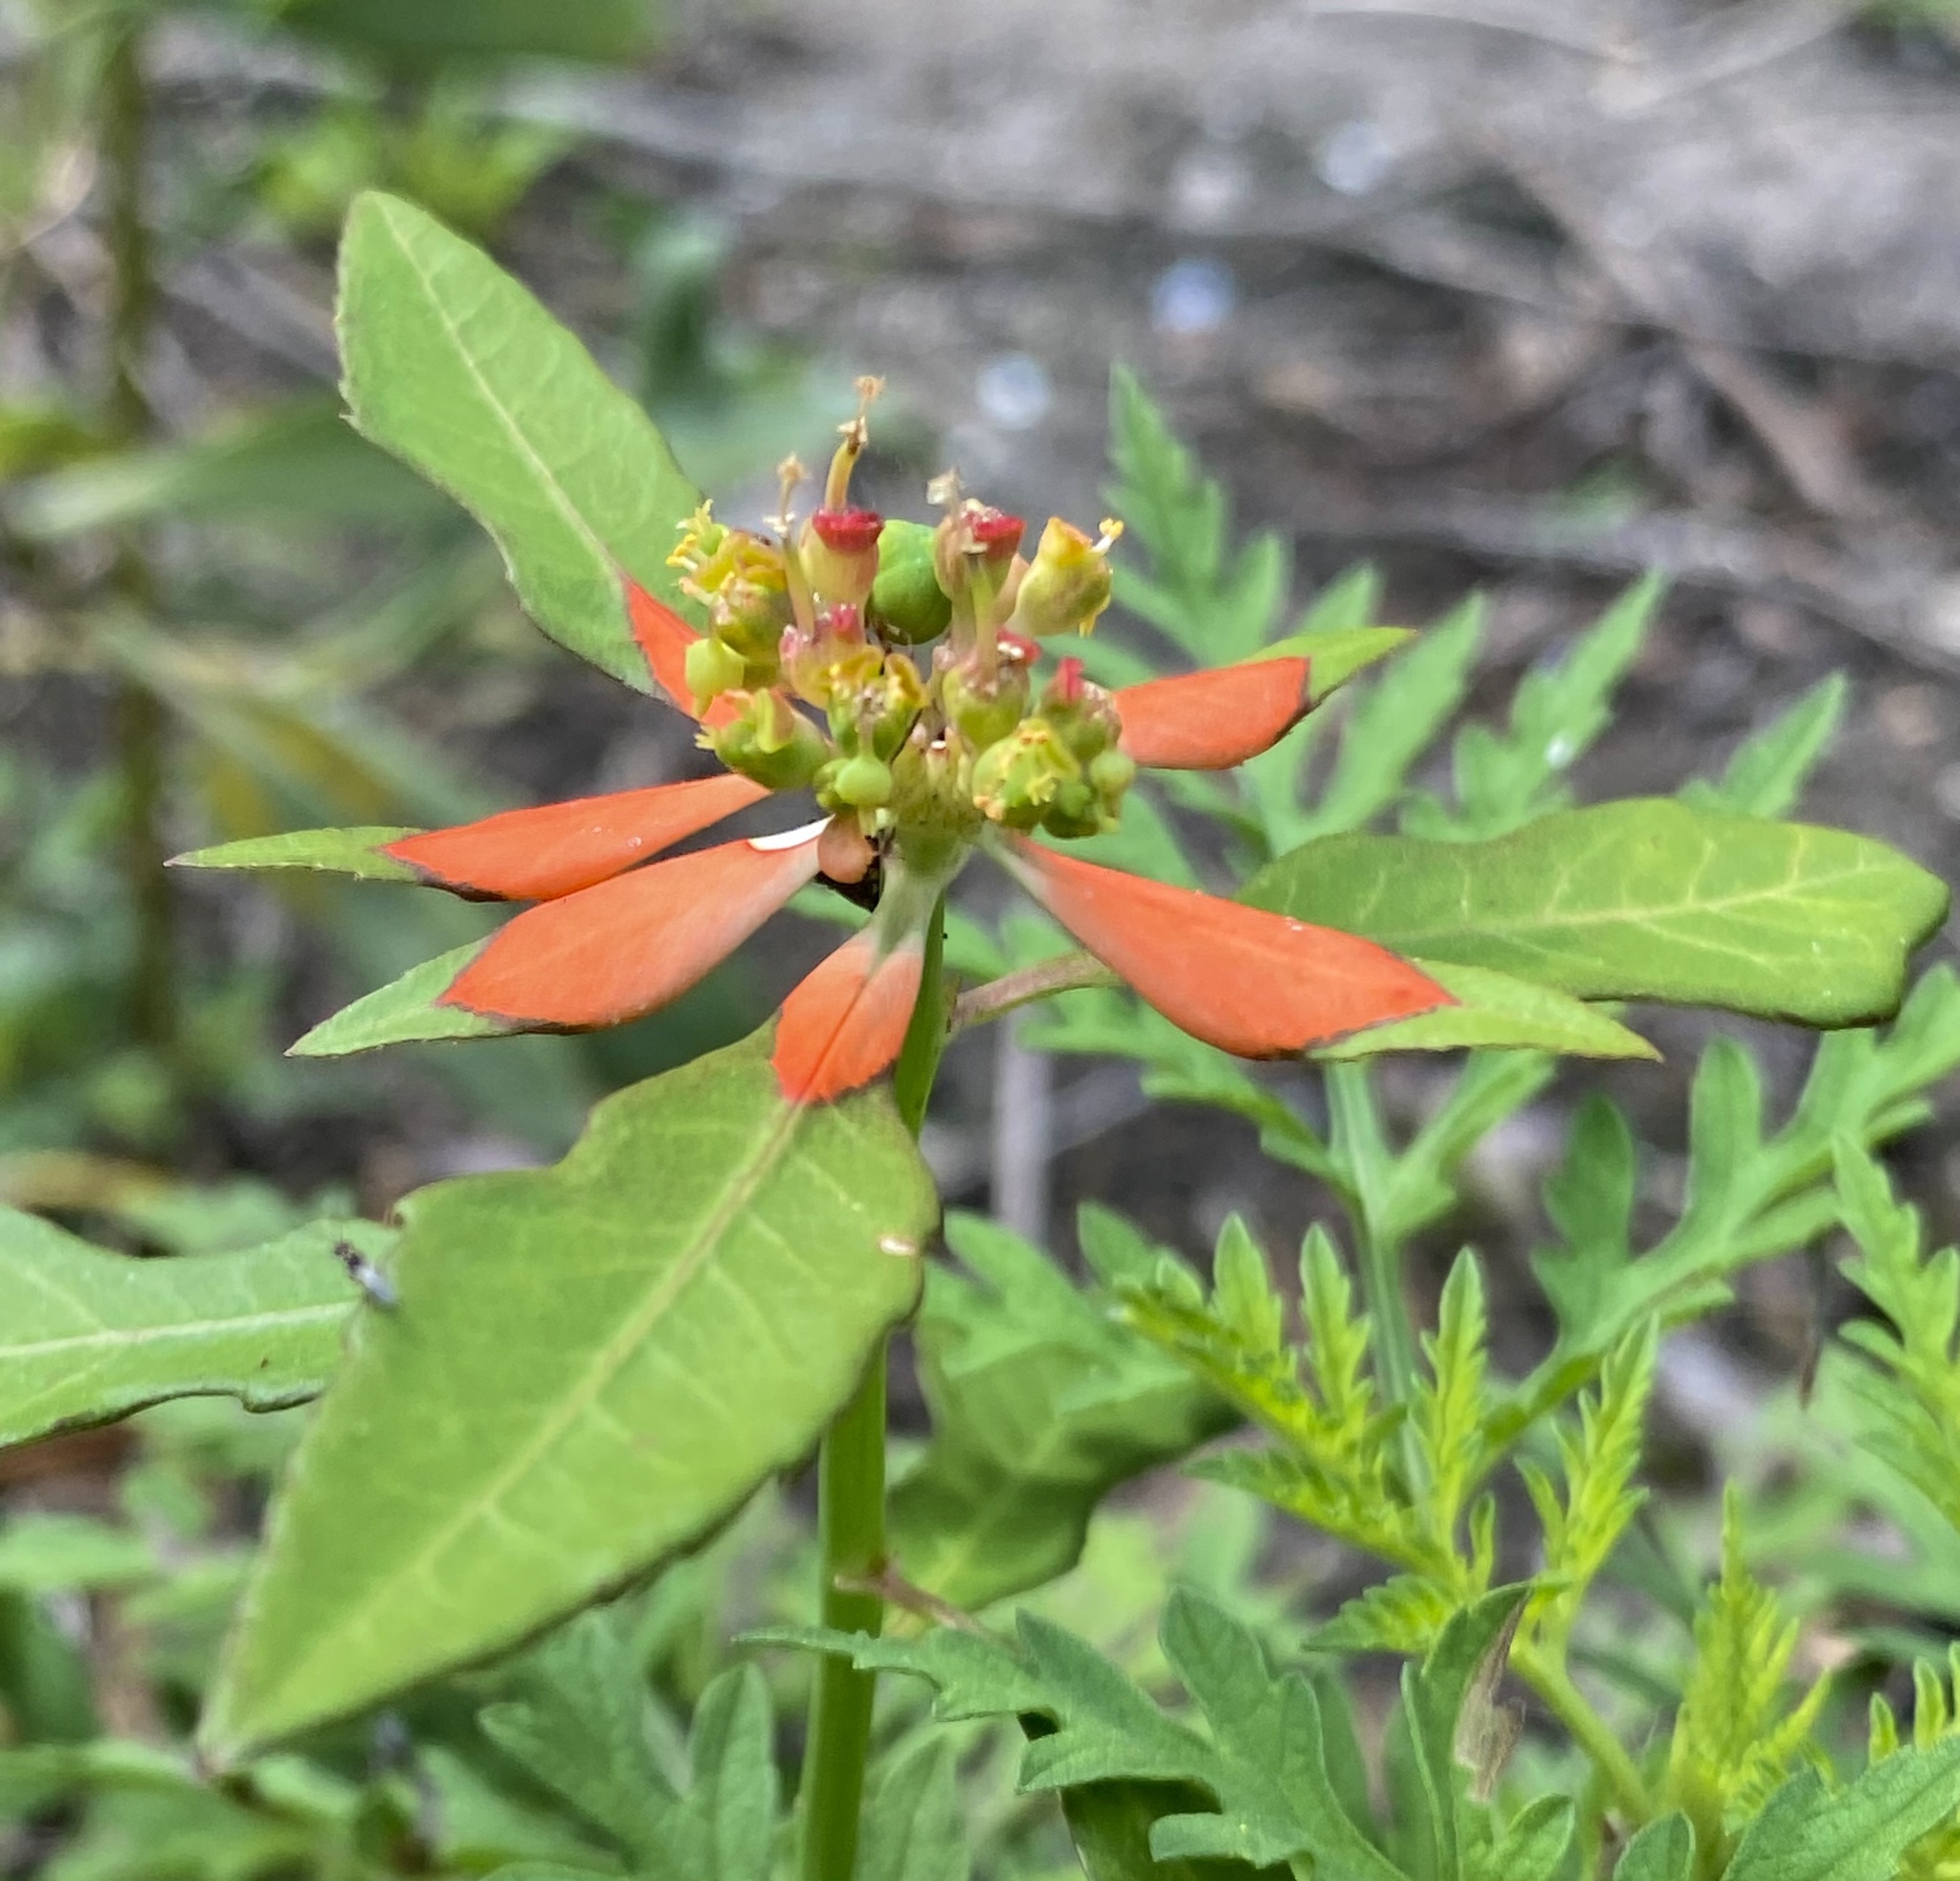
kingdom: Plantae
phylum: Tracheophyta
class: Magnoliopsida
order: Malpighiales
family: Euphorbiaceae
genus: Euphorbia
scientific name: Euphorbia heterophylla
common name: Mexican fireplant
